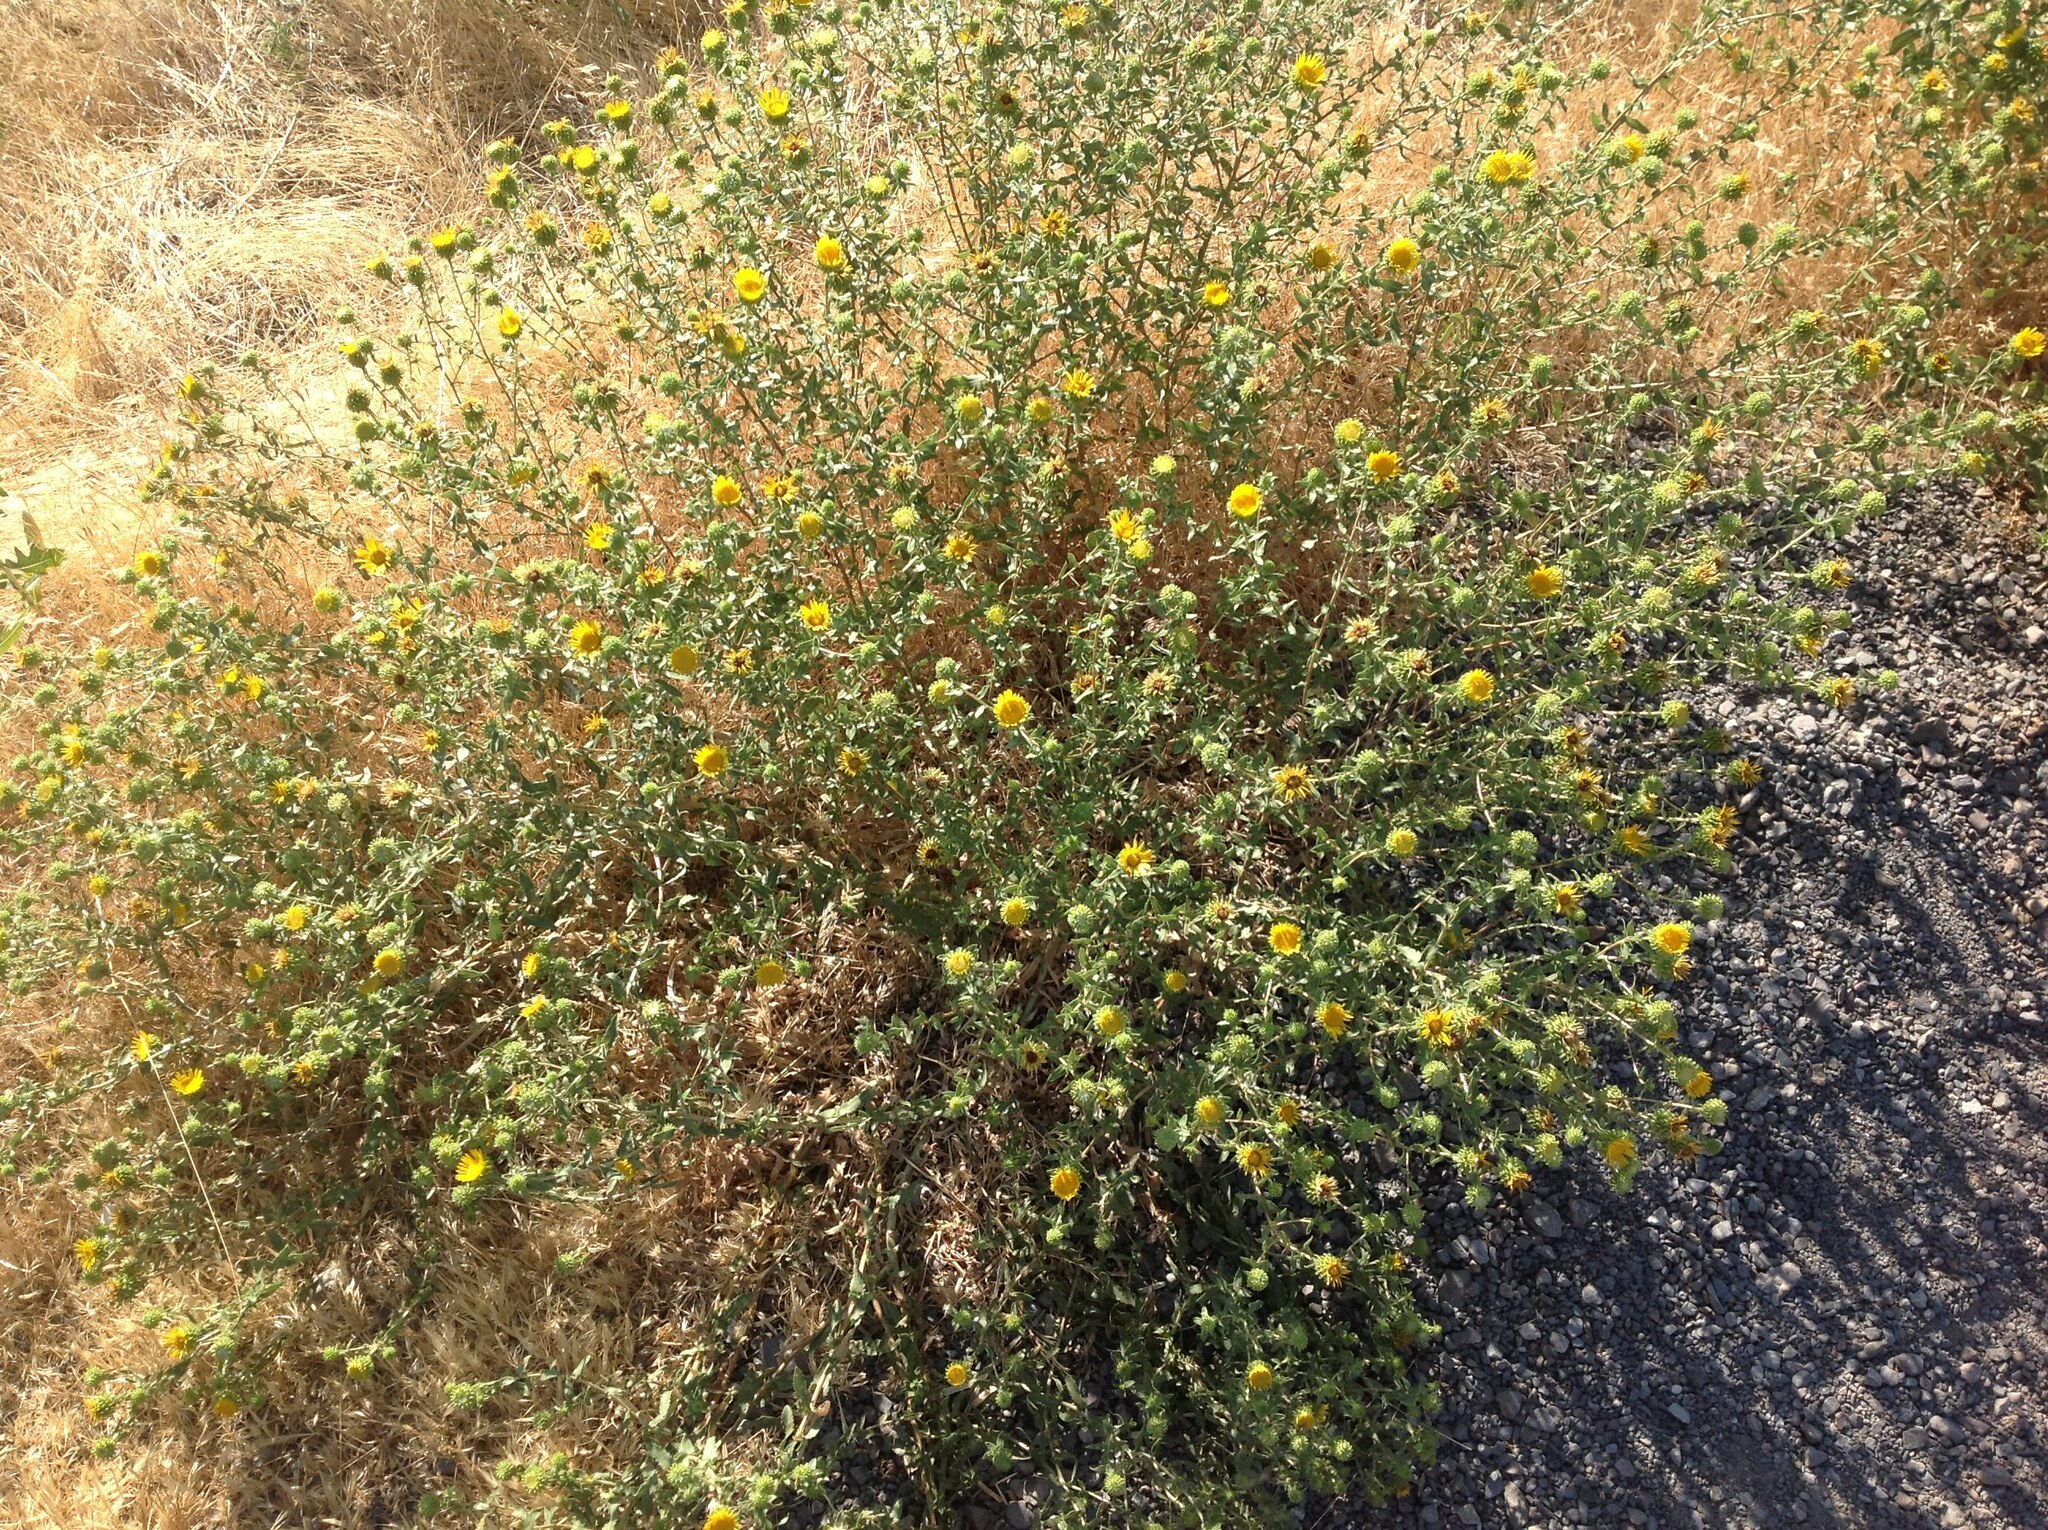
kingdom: Plantae
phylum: Tracheophyta
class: Magnoliopsida
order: Asterales
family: Asteraceae
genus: Grindelia
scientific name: Grindelia squarrosa
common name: Curly-cup gumweed
